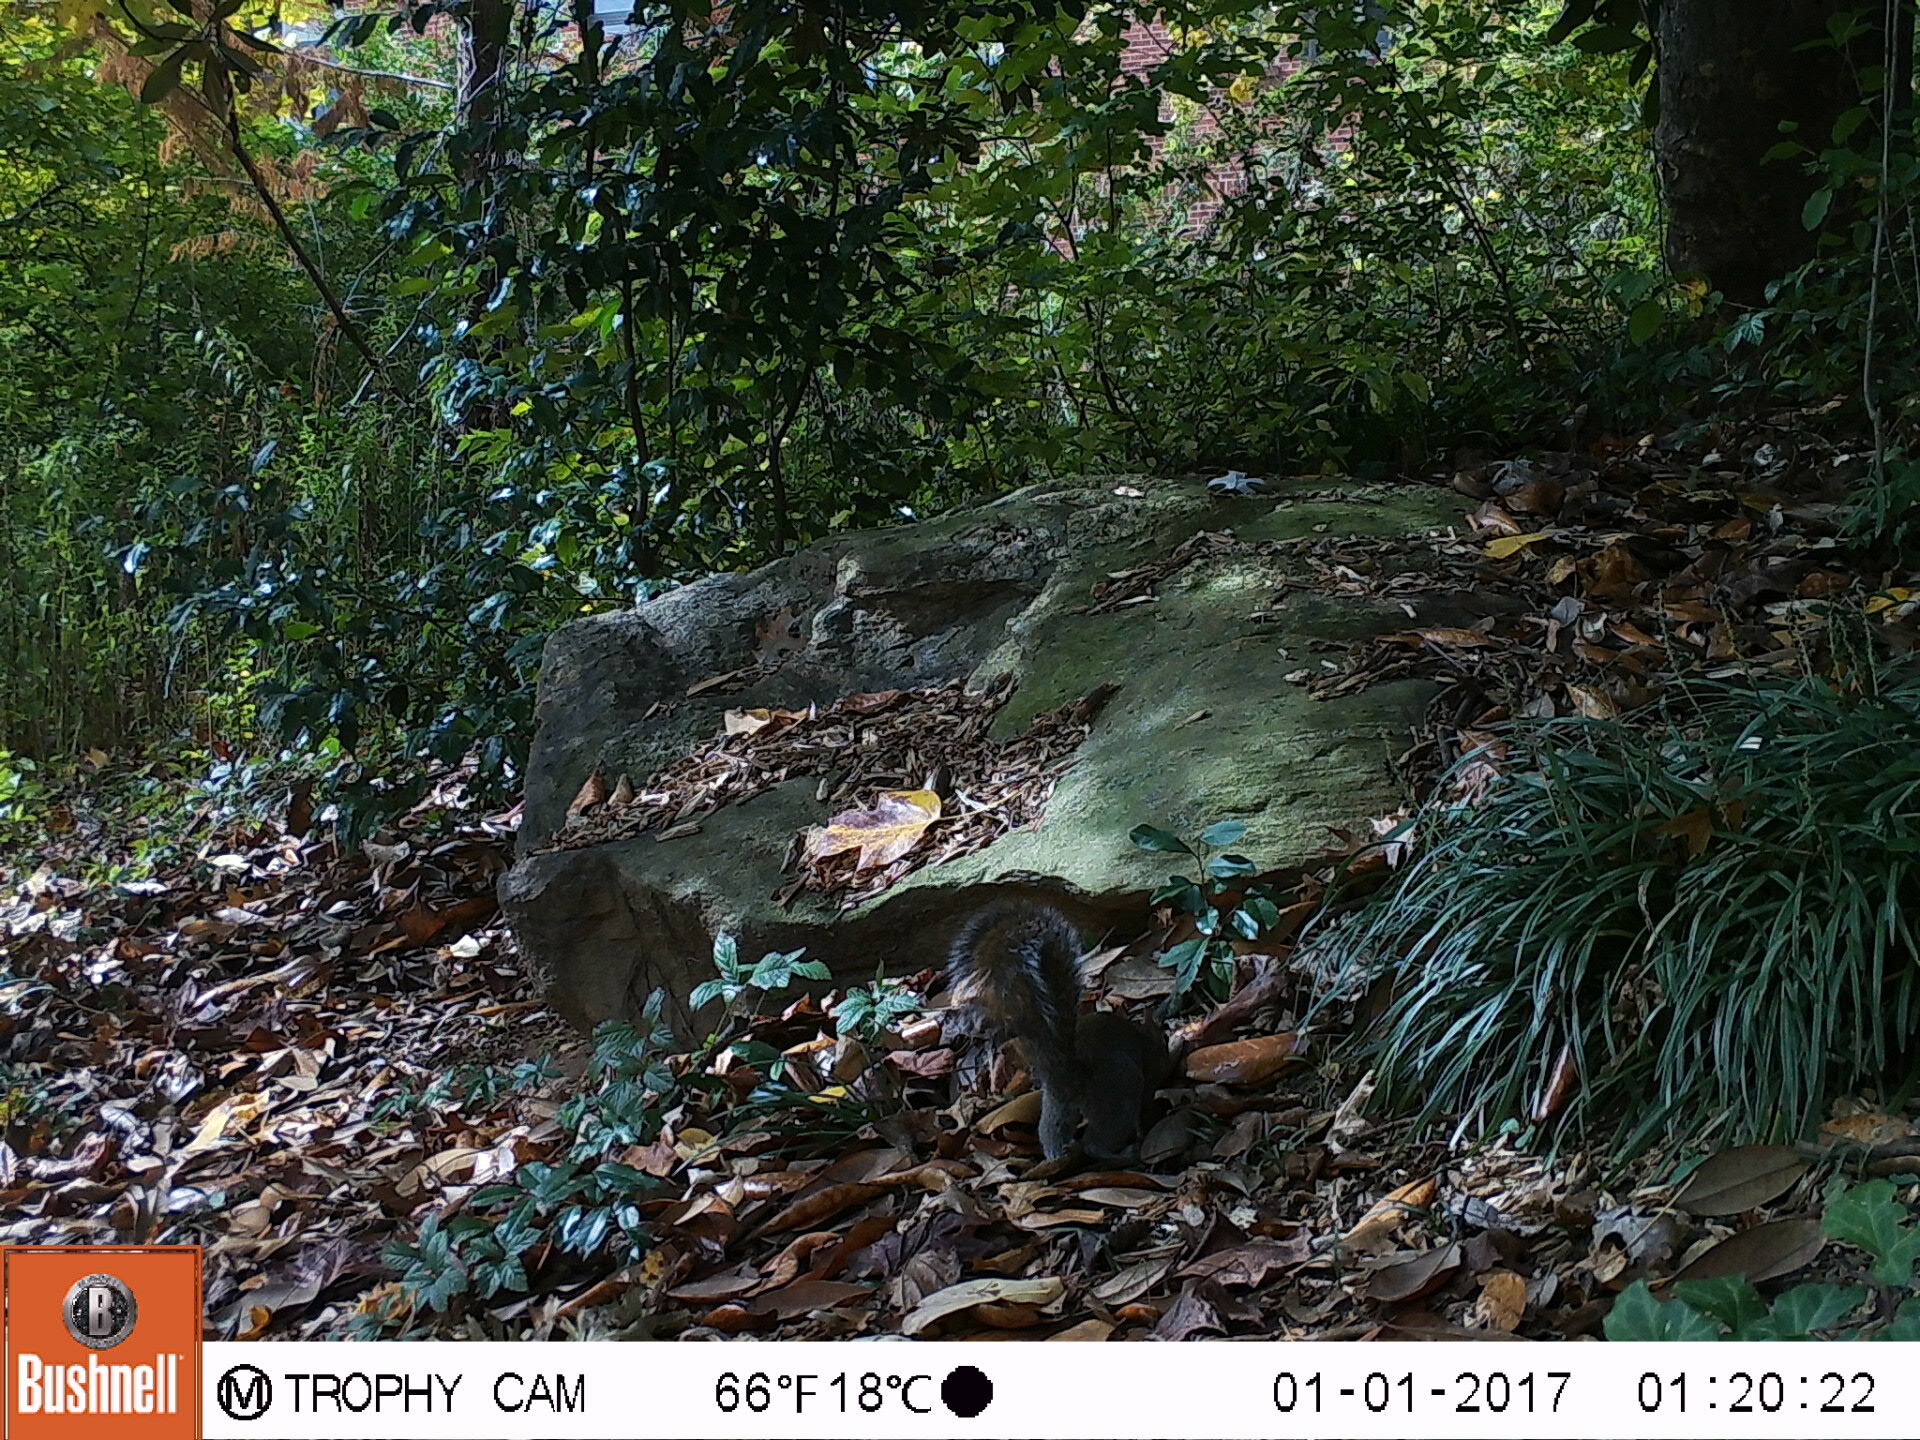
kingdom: Animalia
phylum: Chordata
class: Mammalia
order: Rodentia
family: Sciuridae
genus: Sciurus
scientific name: Sciurus carolinensis
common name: Eastern gray squirrel
